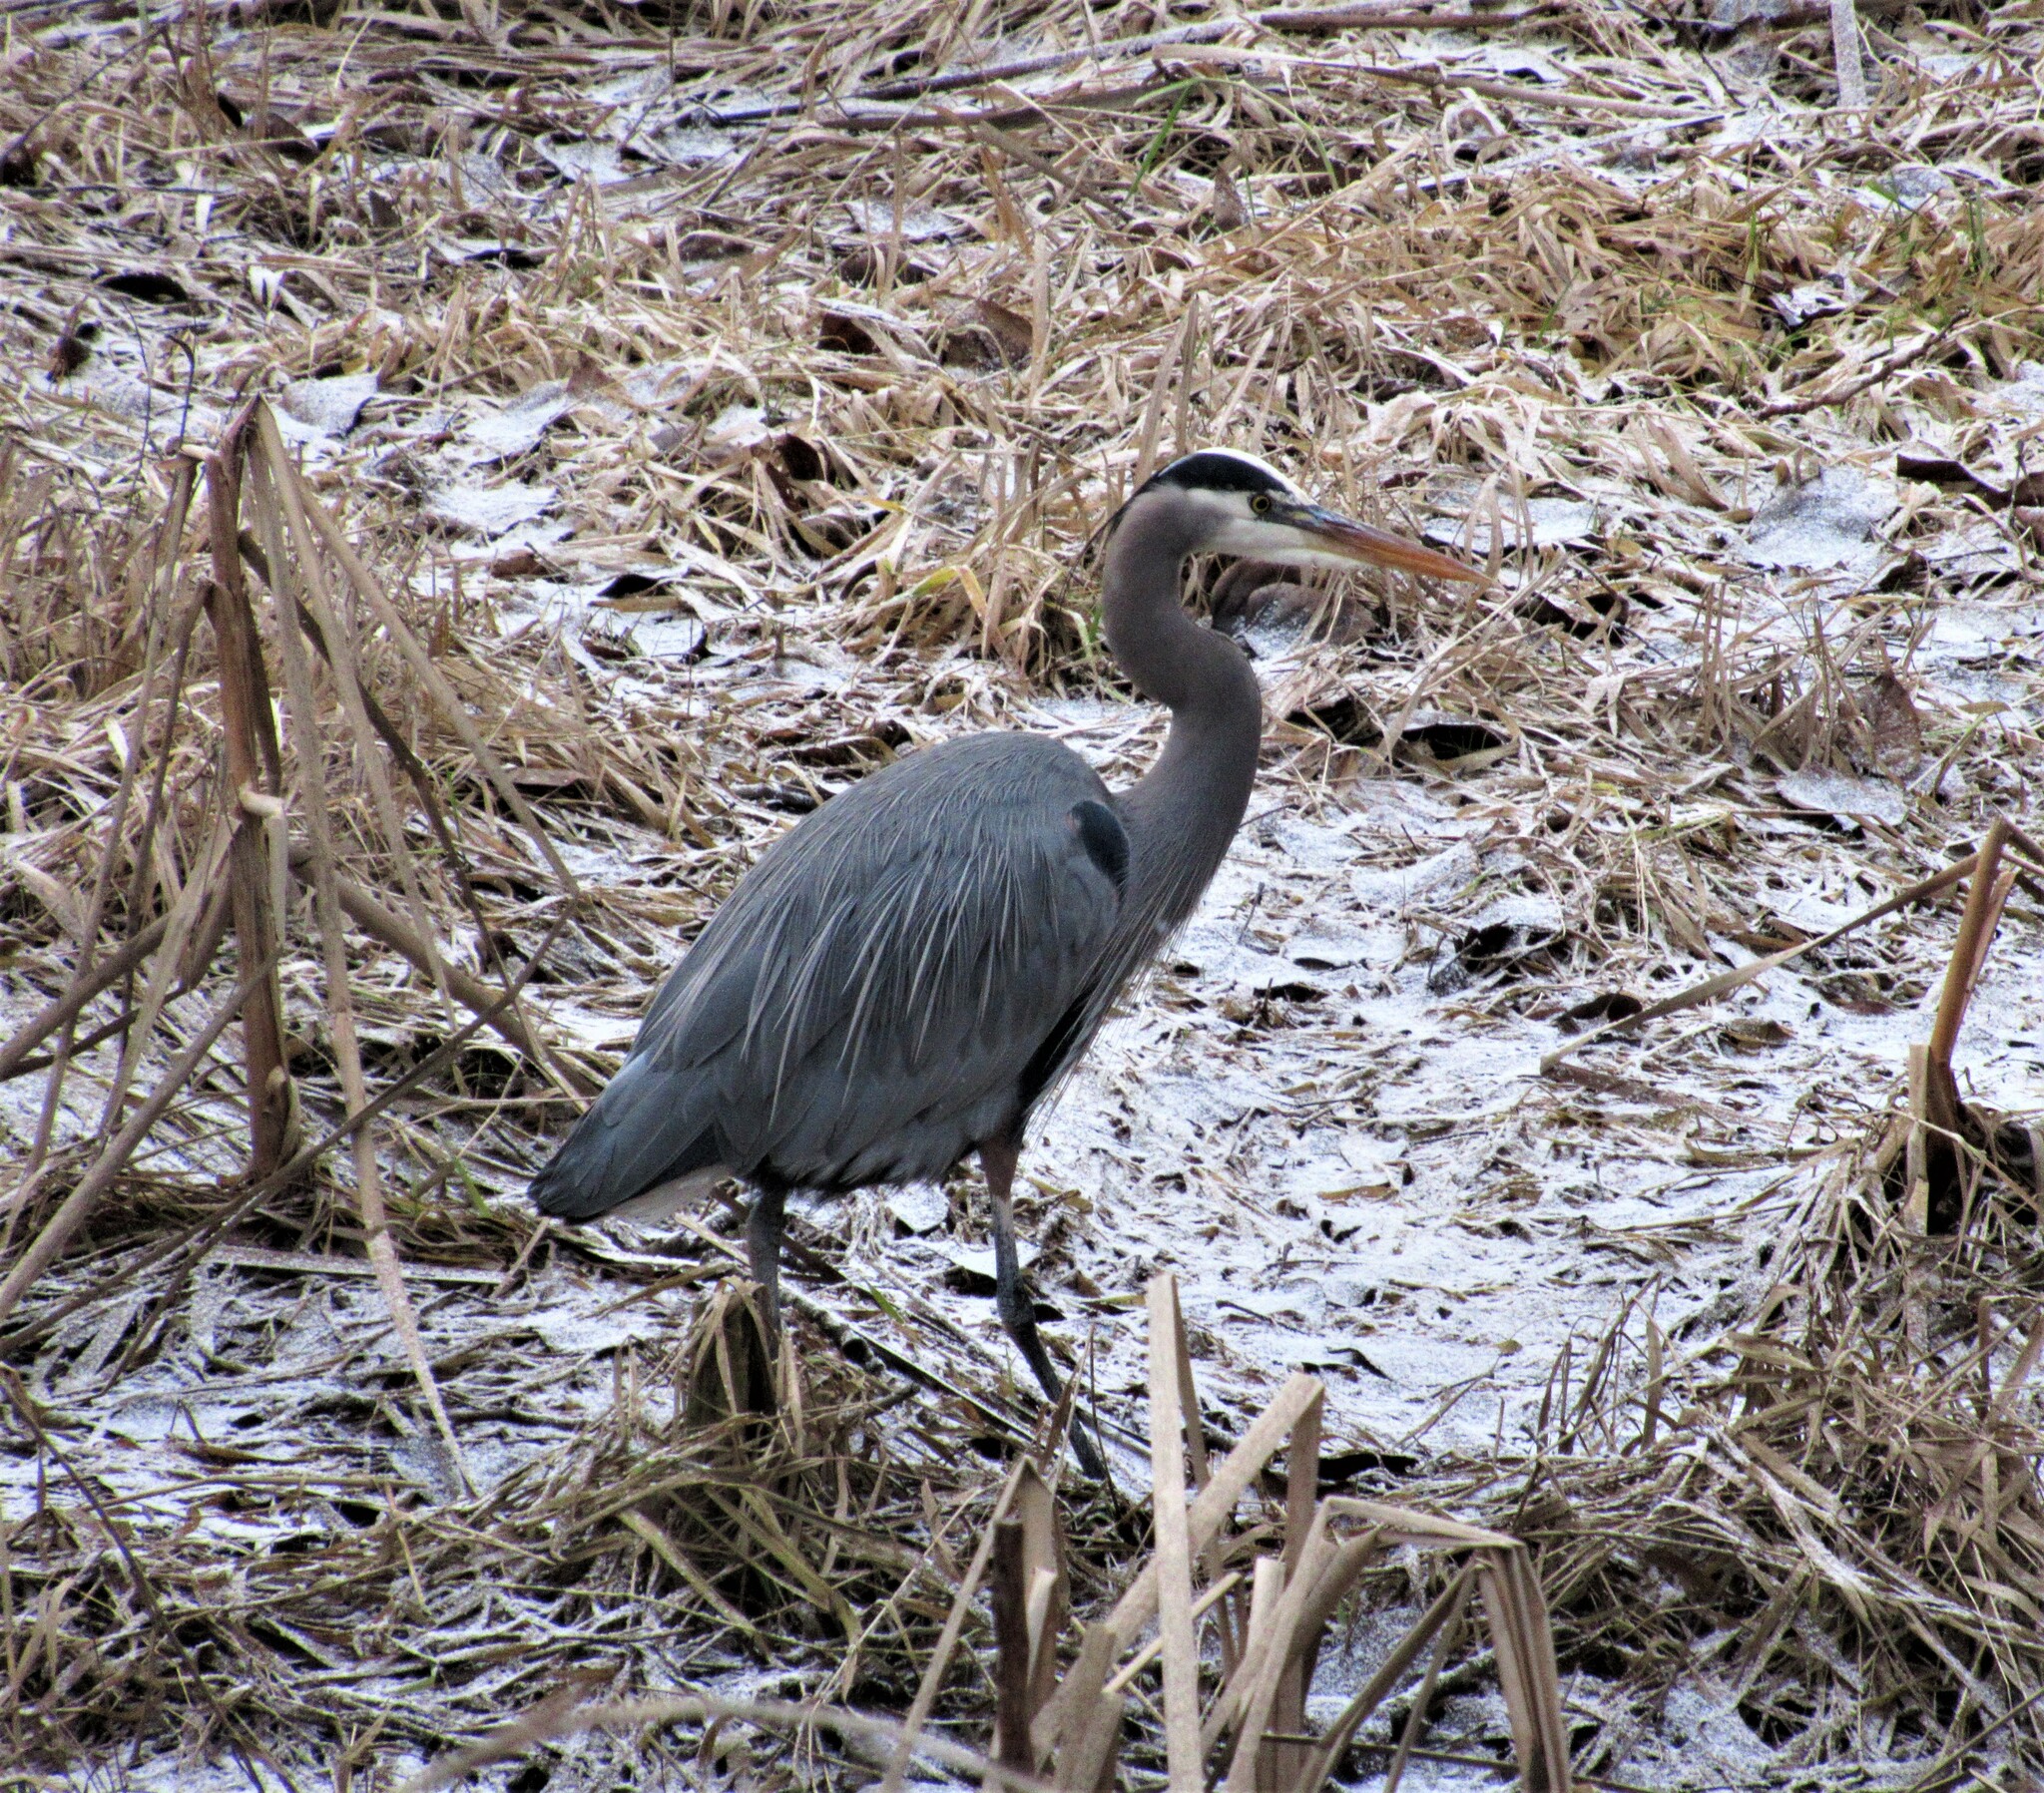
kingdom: Animalia
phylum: Chordata
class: Aves
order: Pelecaniformes
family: Ardeidae
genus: Ardea
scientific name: Ardea herodias
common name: Great blue heron
